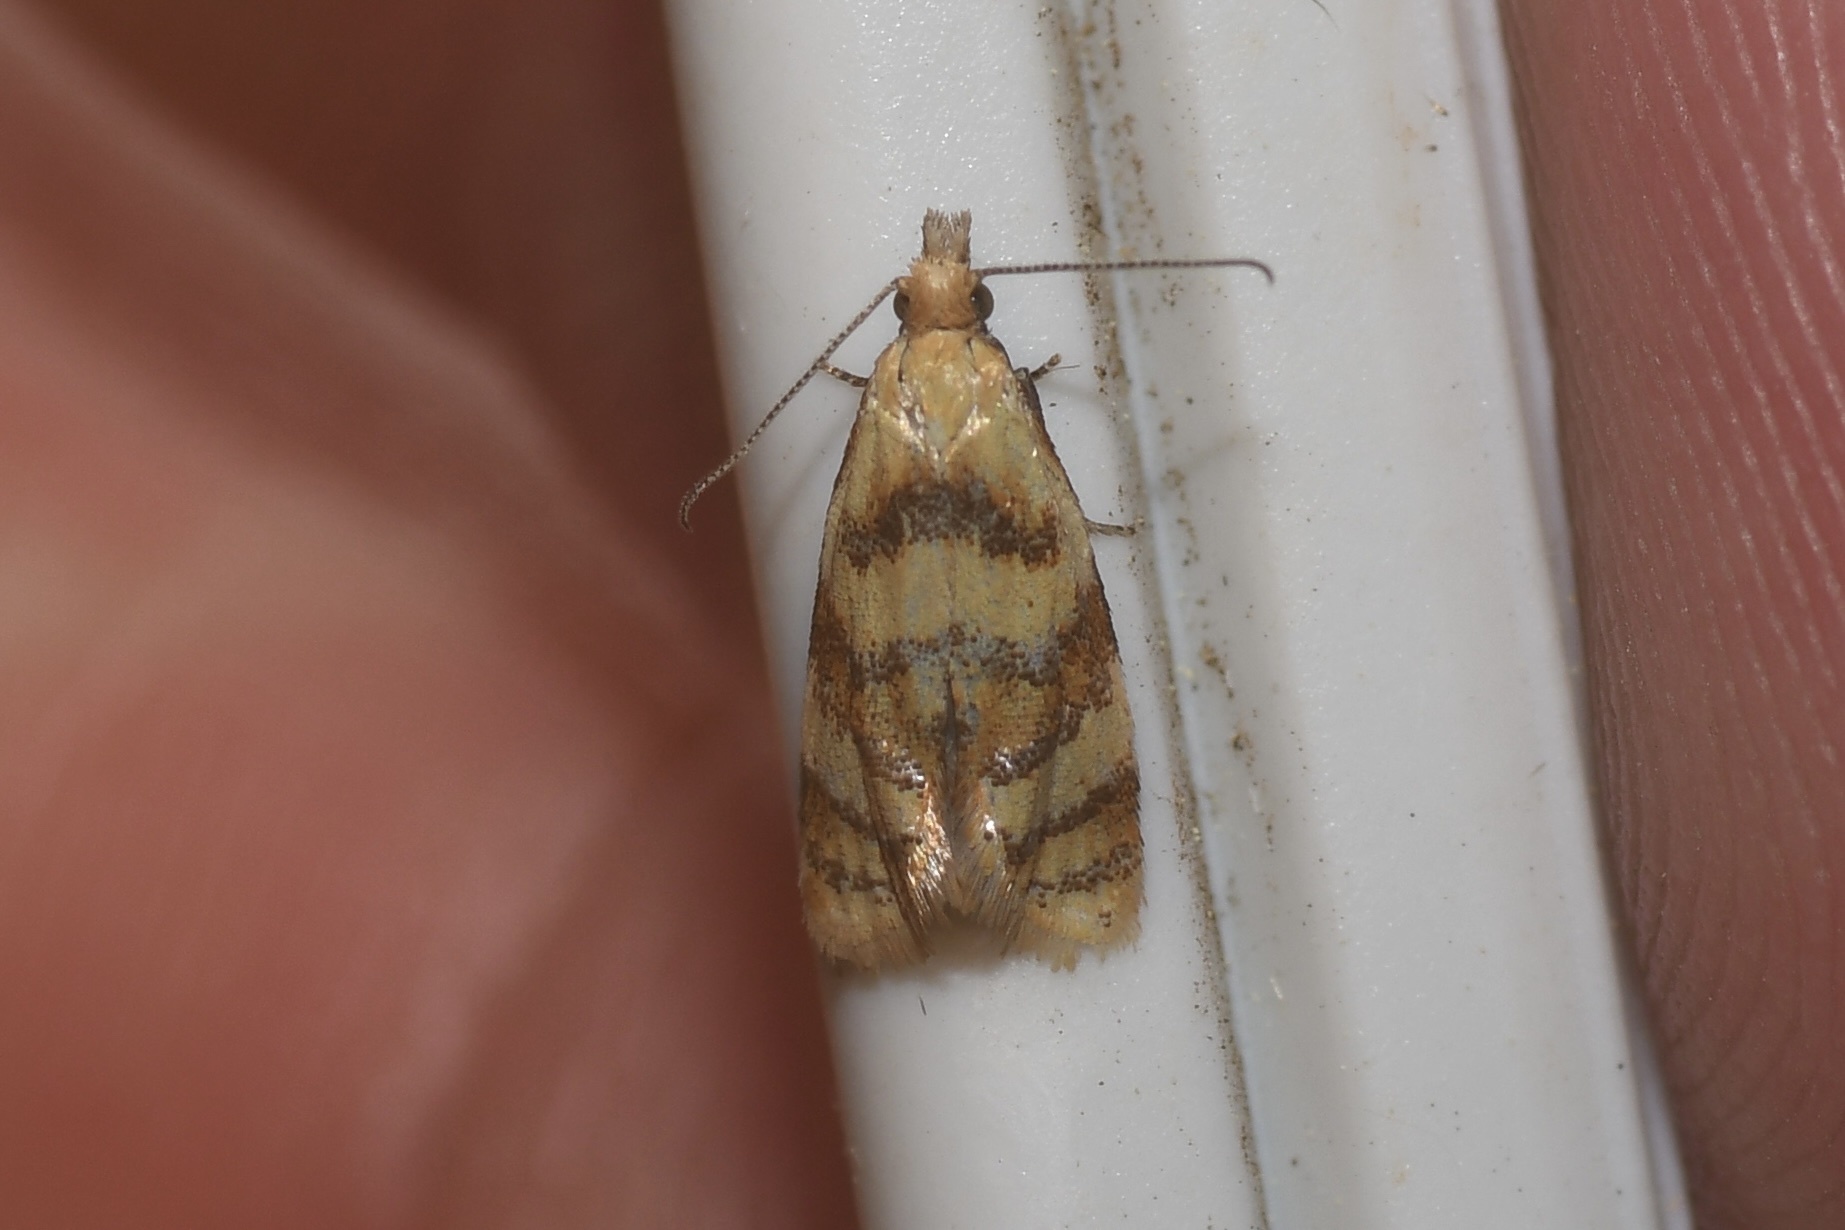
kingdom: Animalia
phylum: Arthropoda
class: Insecta
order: Lepidoptera
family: Tortricidae
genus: Phtheochroa
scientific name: Phtheochroa vitellinana
